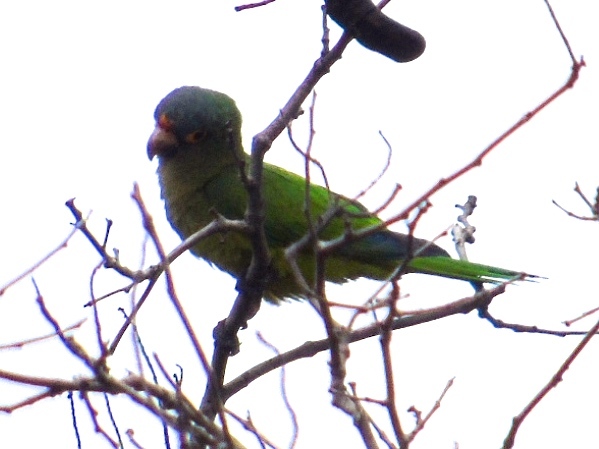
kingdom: Animalia
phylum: Chordata
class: Aves
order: Psittaciformes
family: Psittacidae
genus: Aratinga
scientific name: Aratinga canicularis
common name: Orange-fronted parakeet
